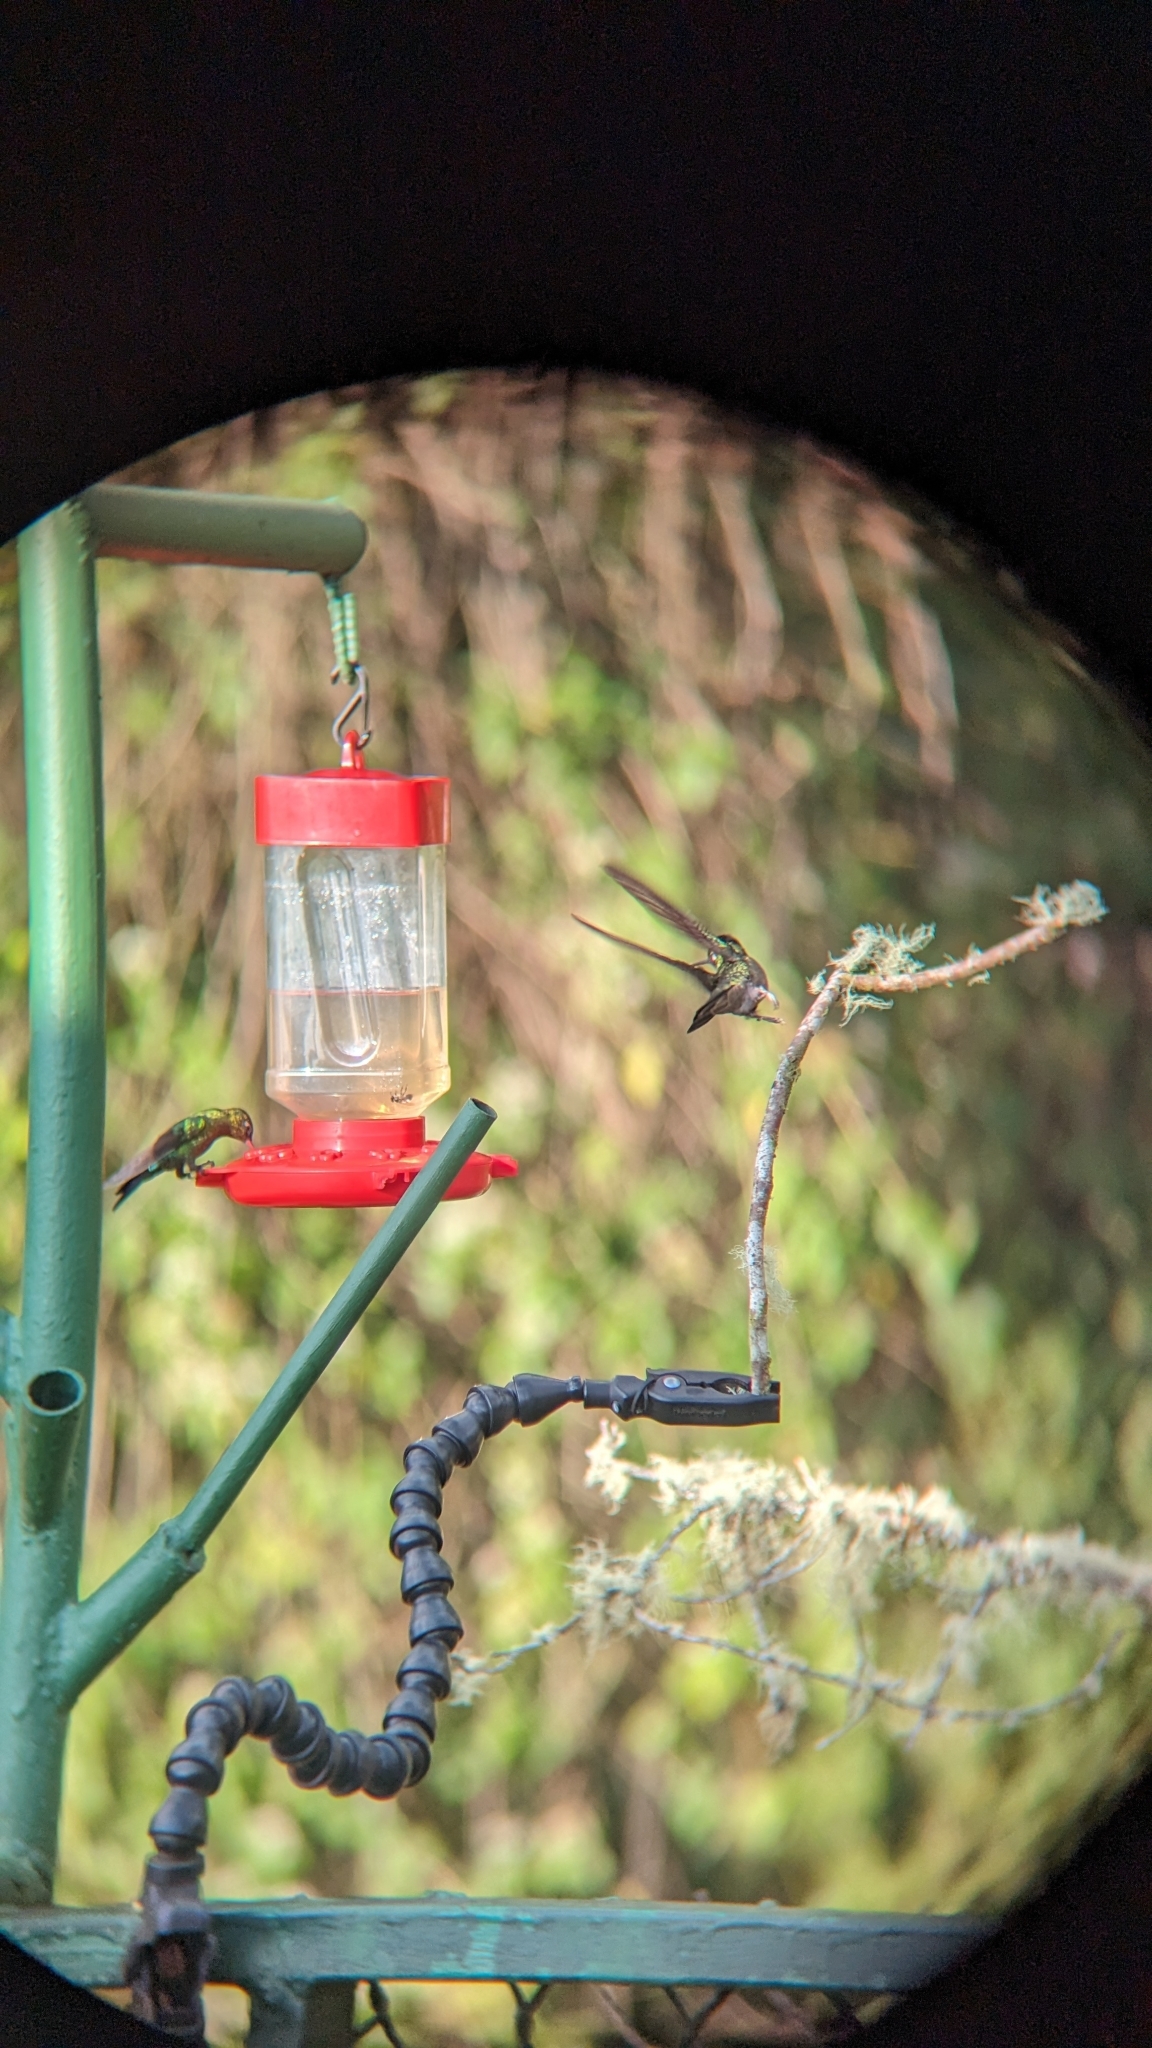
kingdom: Animalia
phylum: Chordata
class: Aves
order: Apodiformes
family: Trochilidae
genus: Eugenes
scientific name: Eugenes spectabilis
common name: Talamanca hummingbird
